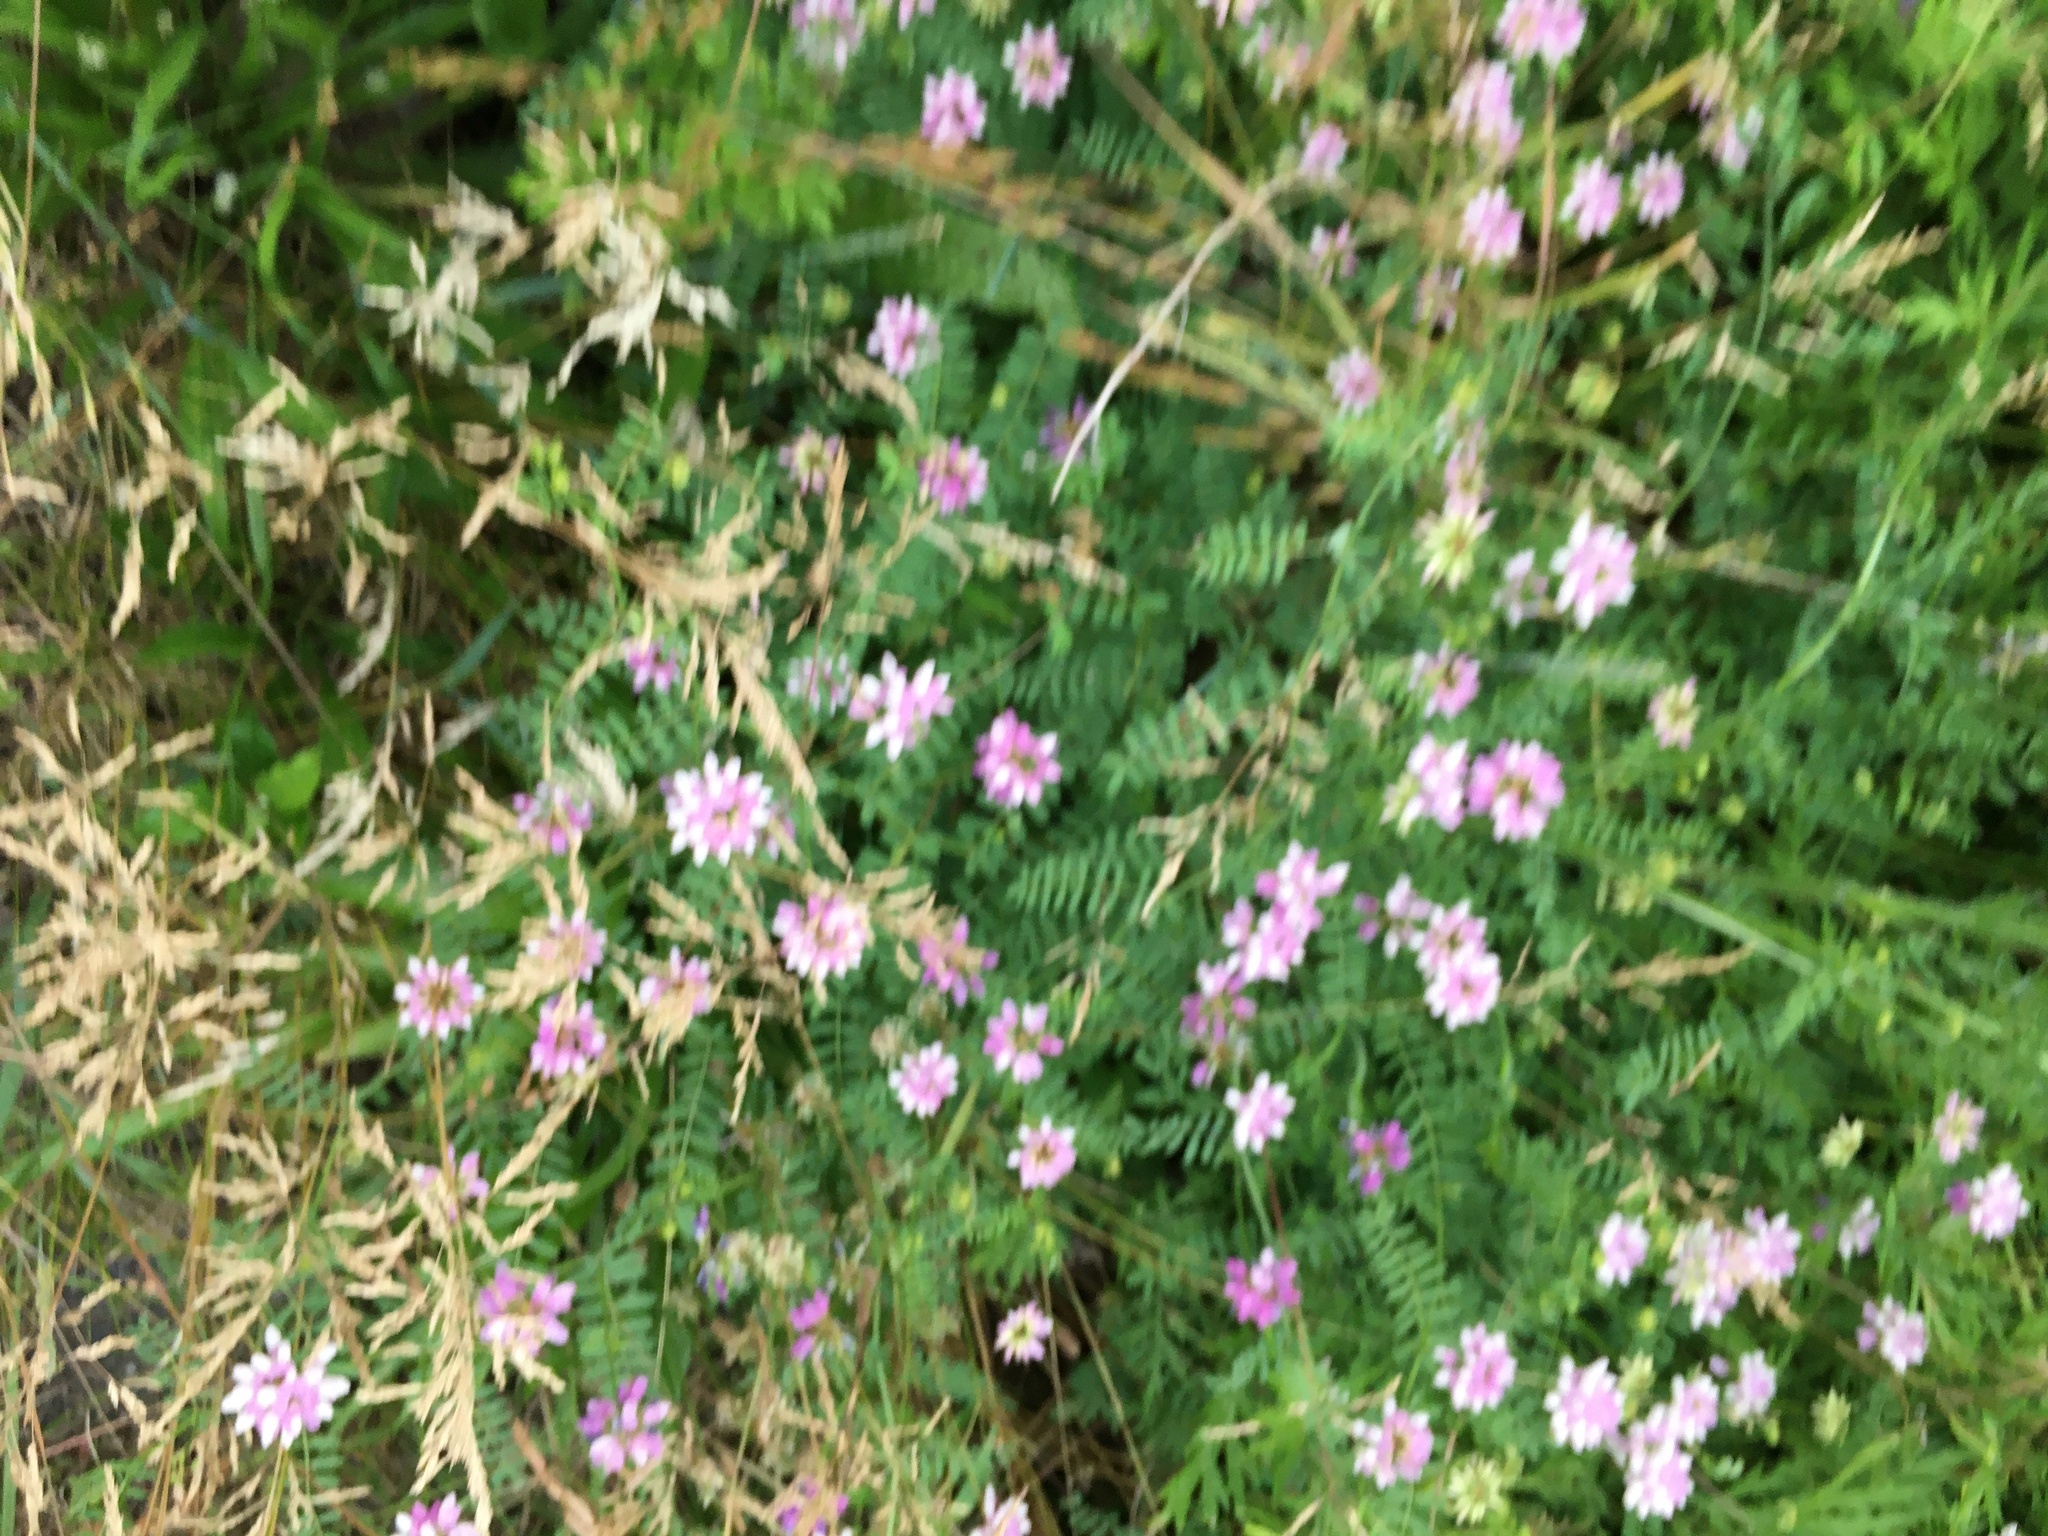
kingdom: Plantae
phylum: Tracheophyta
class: Magnoliopsida
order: Fabales
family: Fabaceae
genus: Coronilla
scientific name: Coronilla varia
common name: Crownvetch
